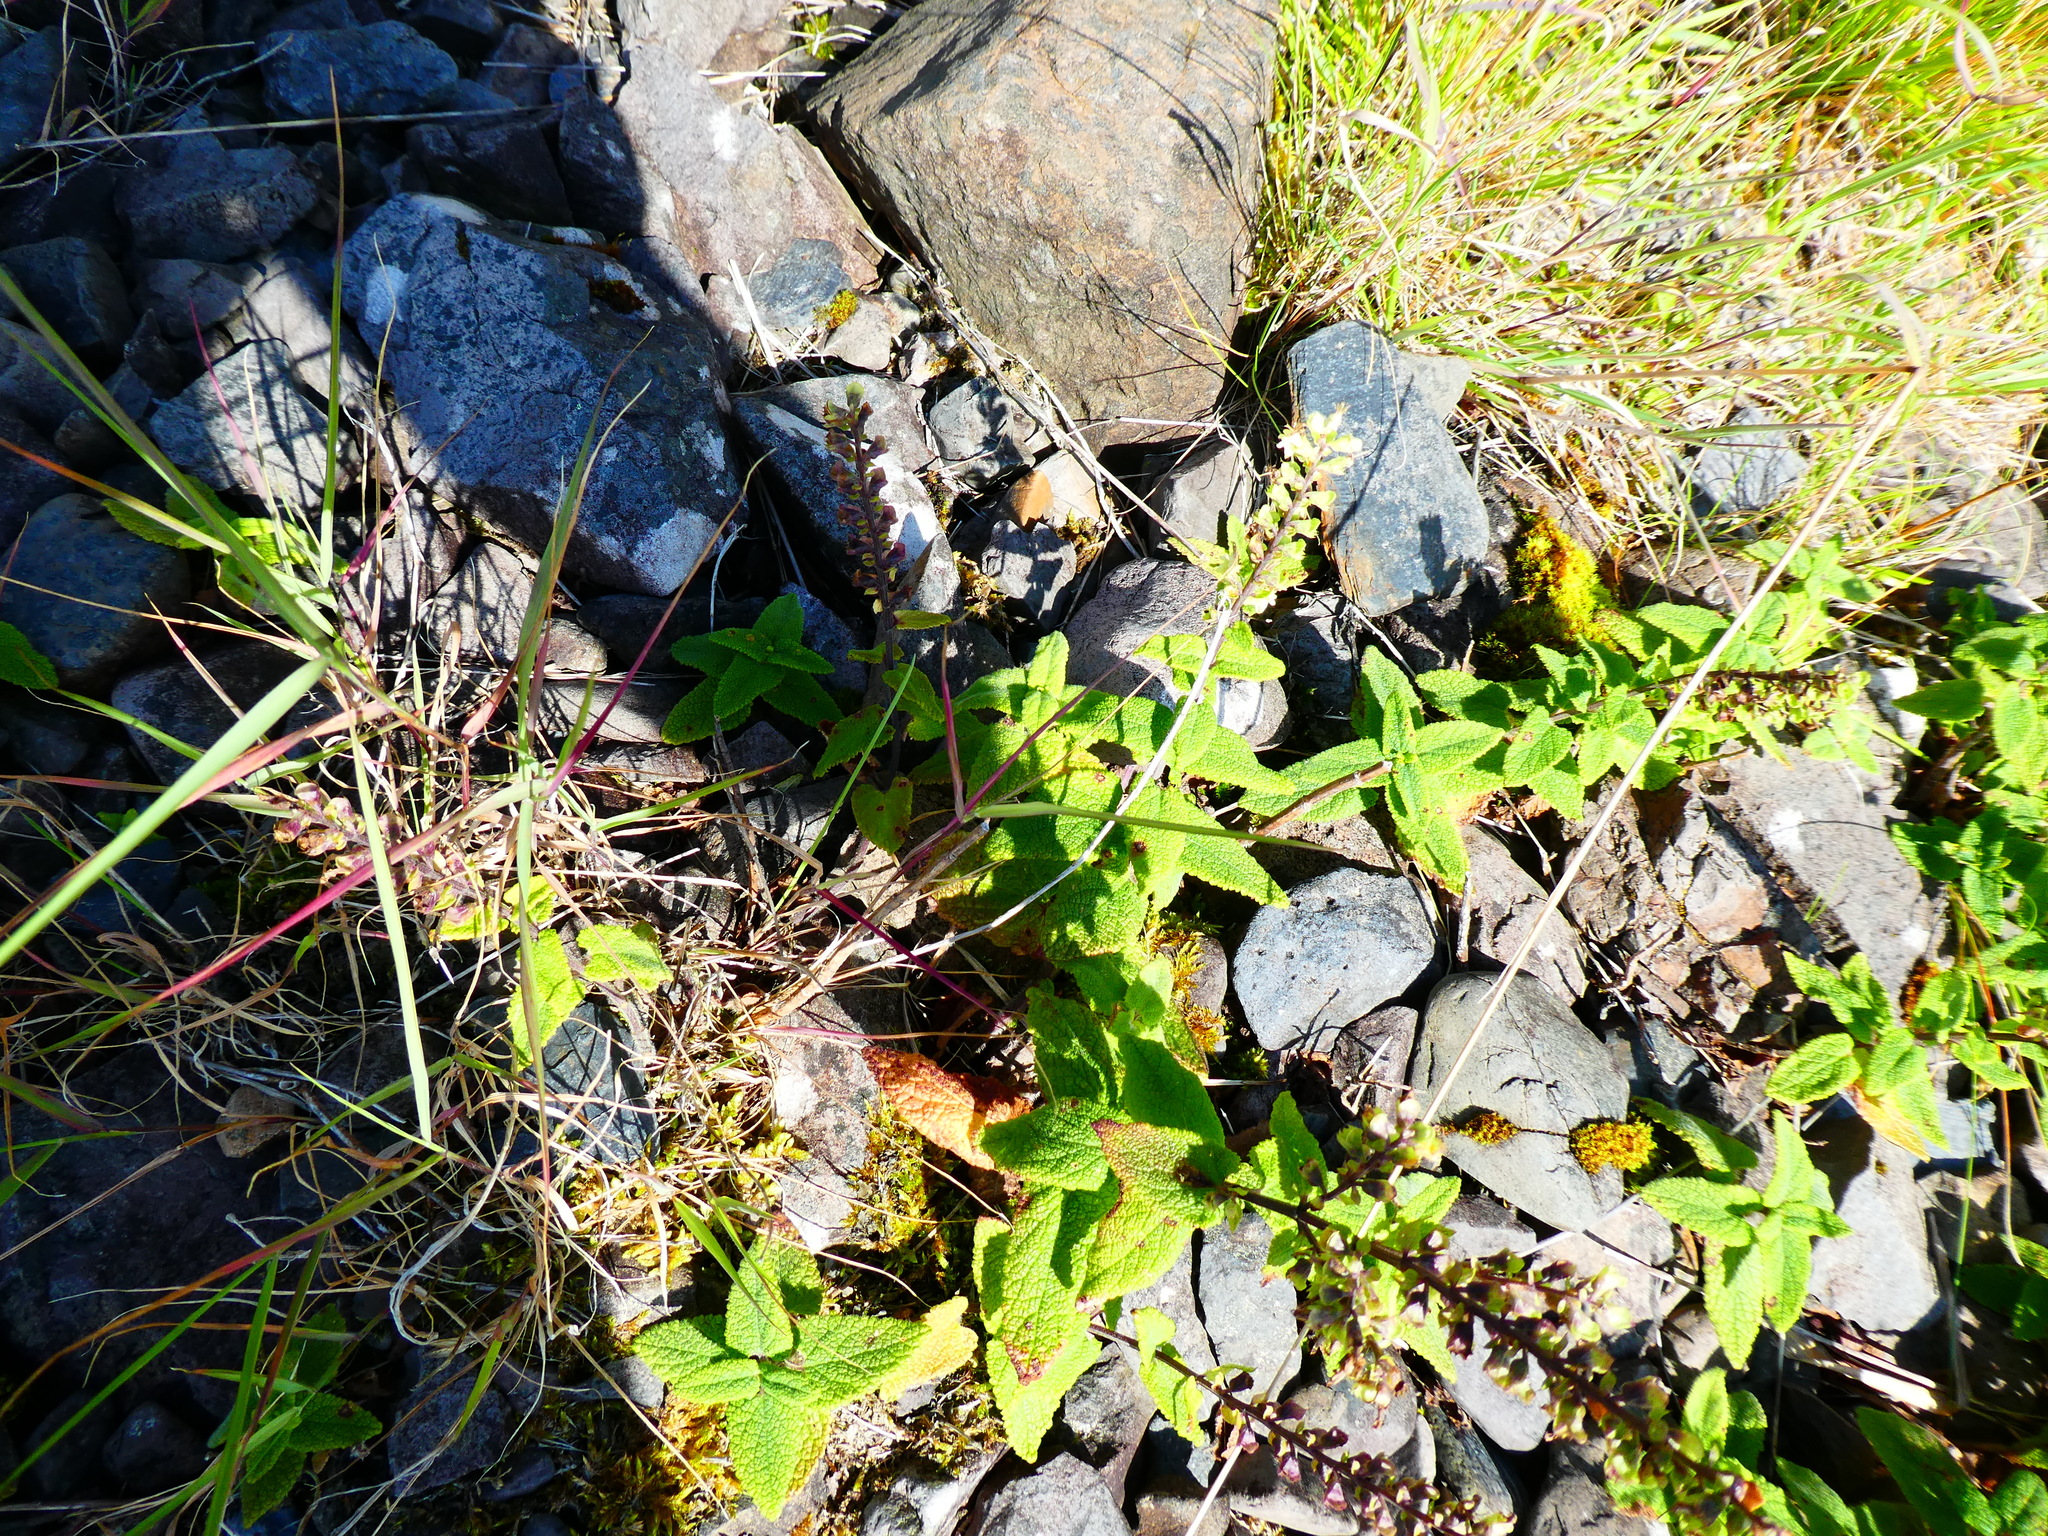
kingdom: Plantae
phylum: Tracheophyta
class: Magnoliopsida
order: Lamiales
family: Lamiaceae
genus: Teucrium
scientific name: Teucrium scorodonia
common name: Woodland germander
